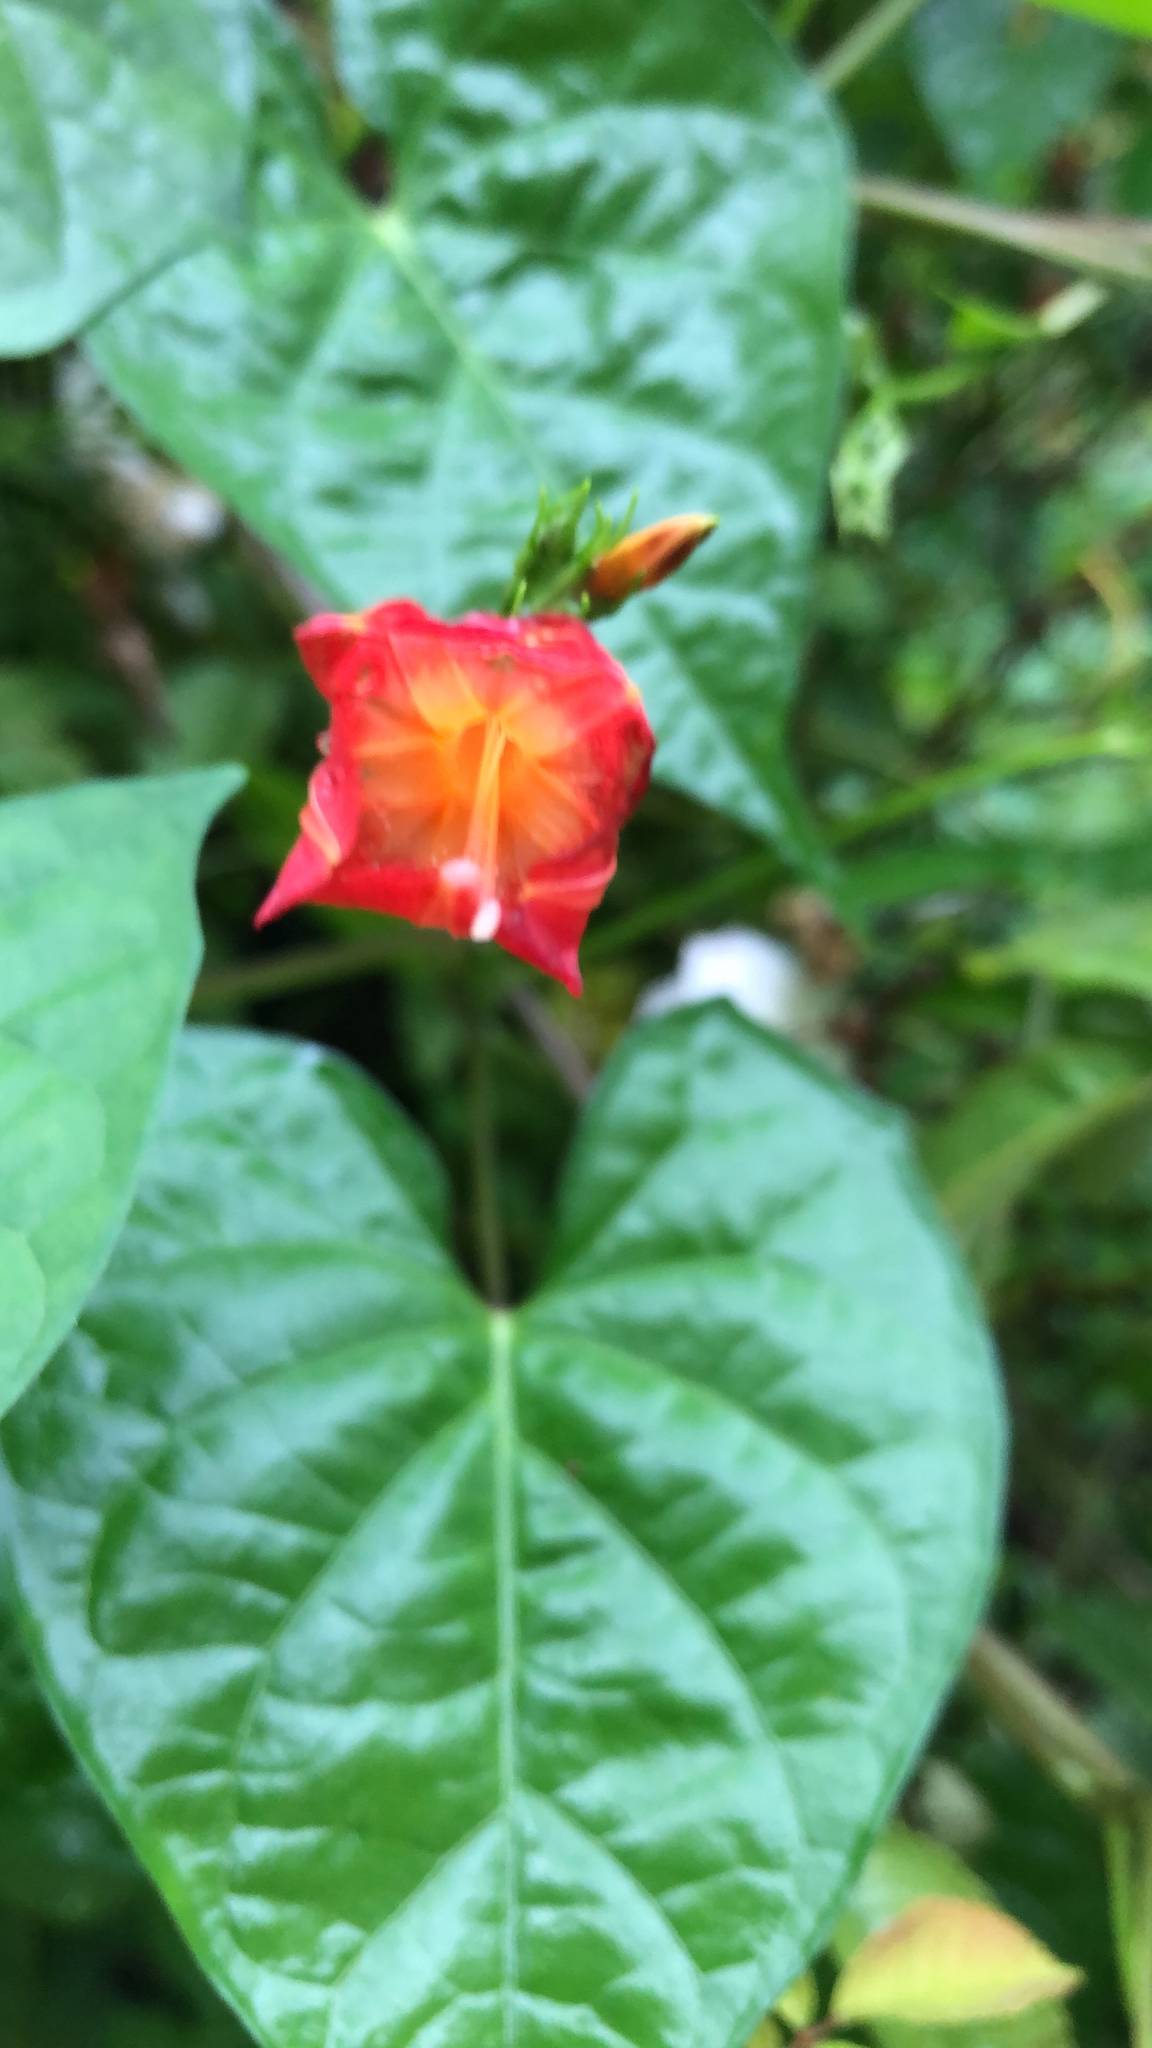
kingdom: Plantae
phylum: Tracheophyta
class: Magnoliopsida
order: Solanales
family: Convolvulaceae
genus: Ipomoea
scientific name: Ipomoea coccinea
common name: Red morning-glory
